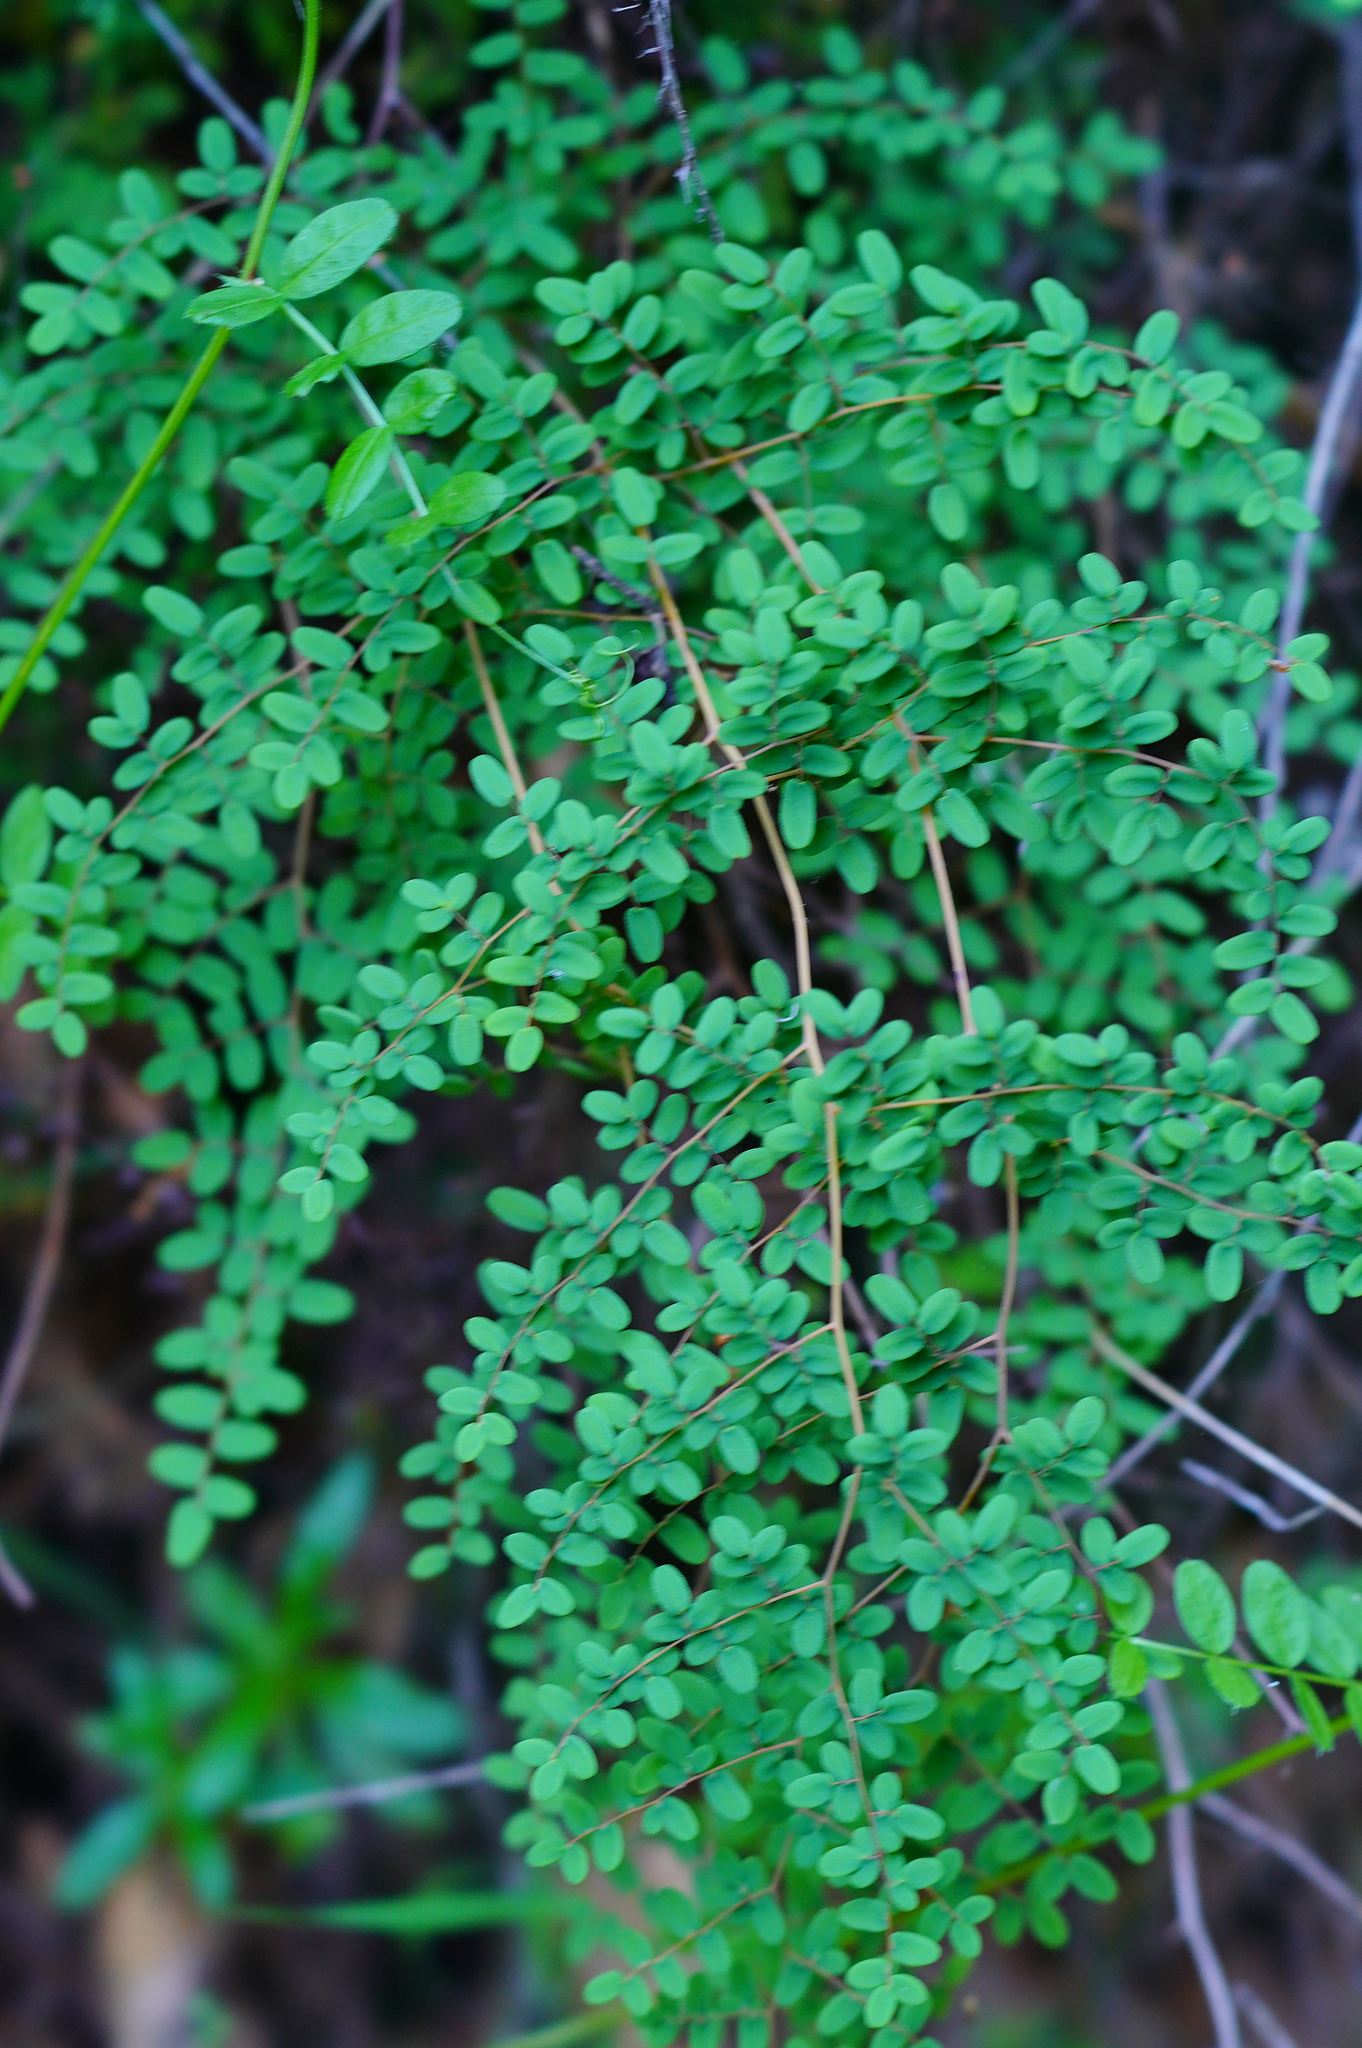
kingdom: Plantae
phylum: Tracheophyta
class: Polypodiopsida
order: Polypodiales
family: Pteridaceae
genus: Pellaea
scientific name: Pellaea andromedifolia
